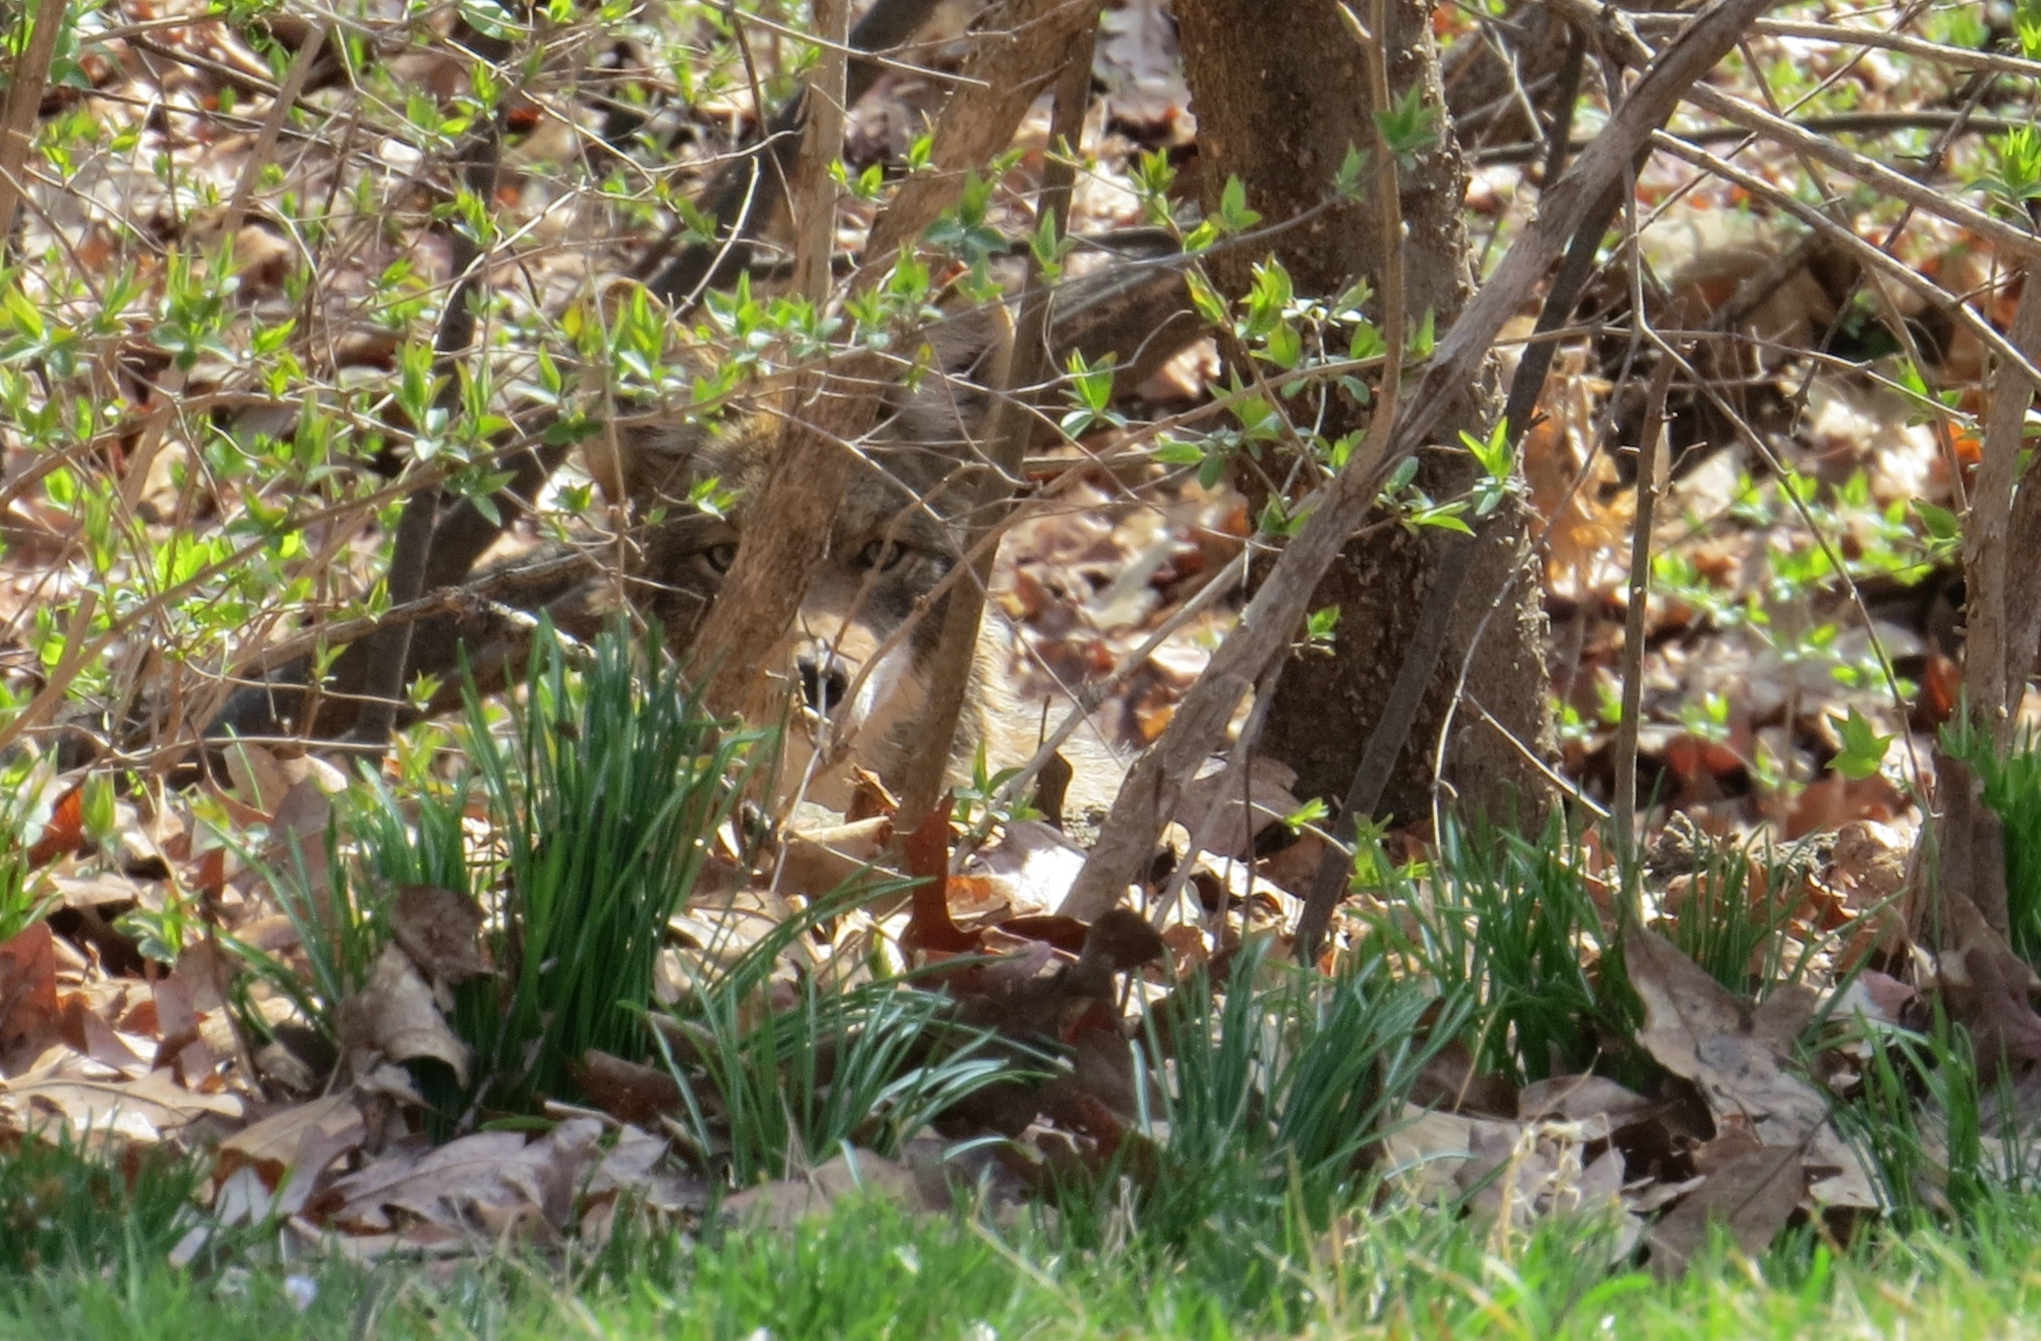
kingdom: Animalia
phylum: Chordata
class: Mammalia
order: Carnivora
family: Canidae
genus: Canis
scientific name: Canis latrans
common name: Coyote
